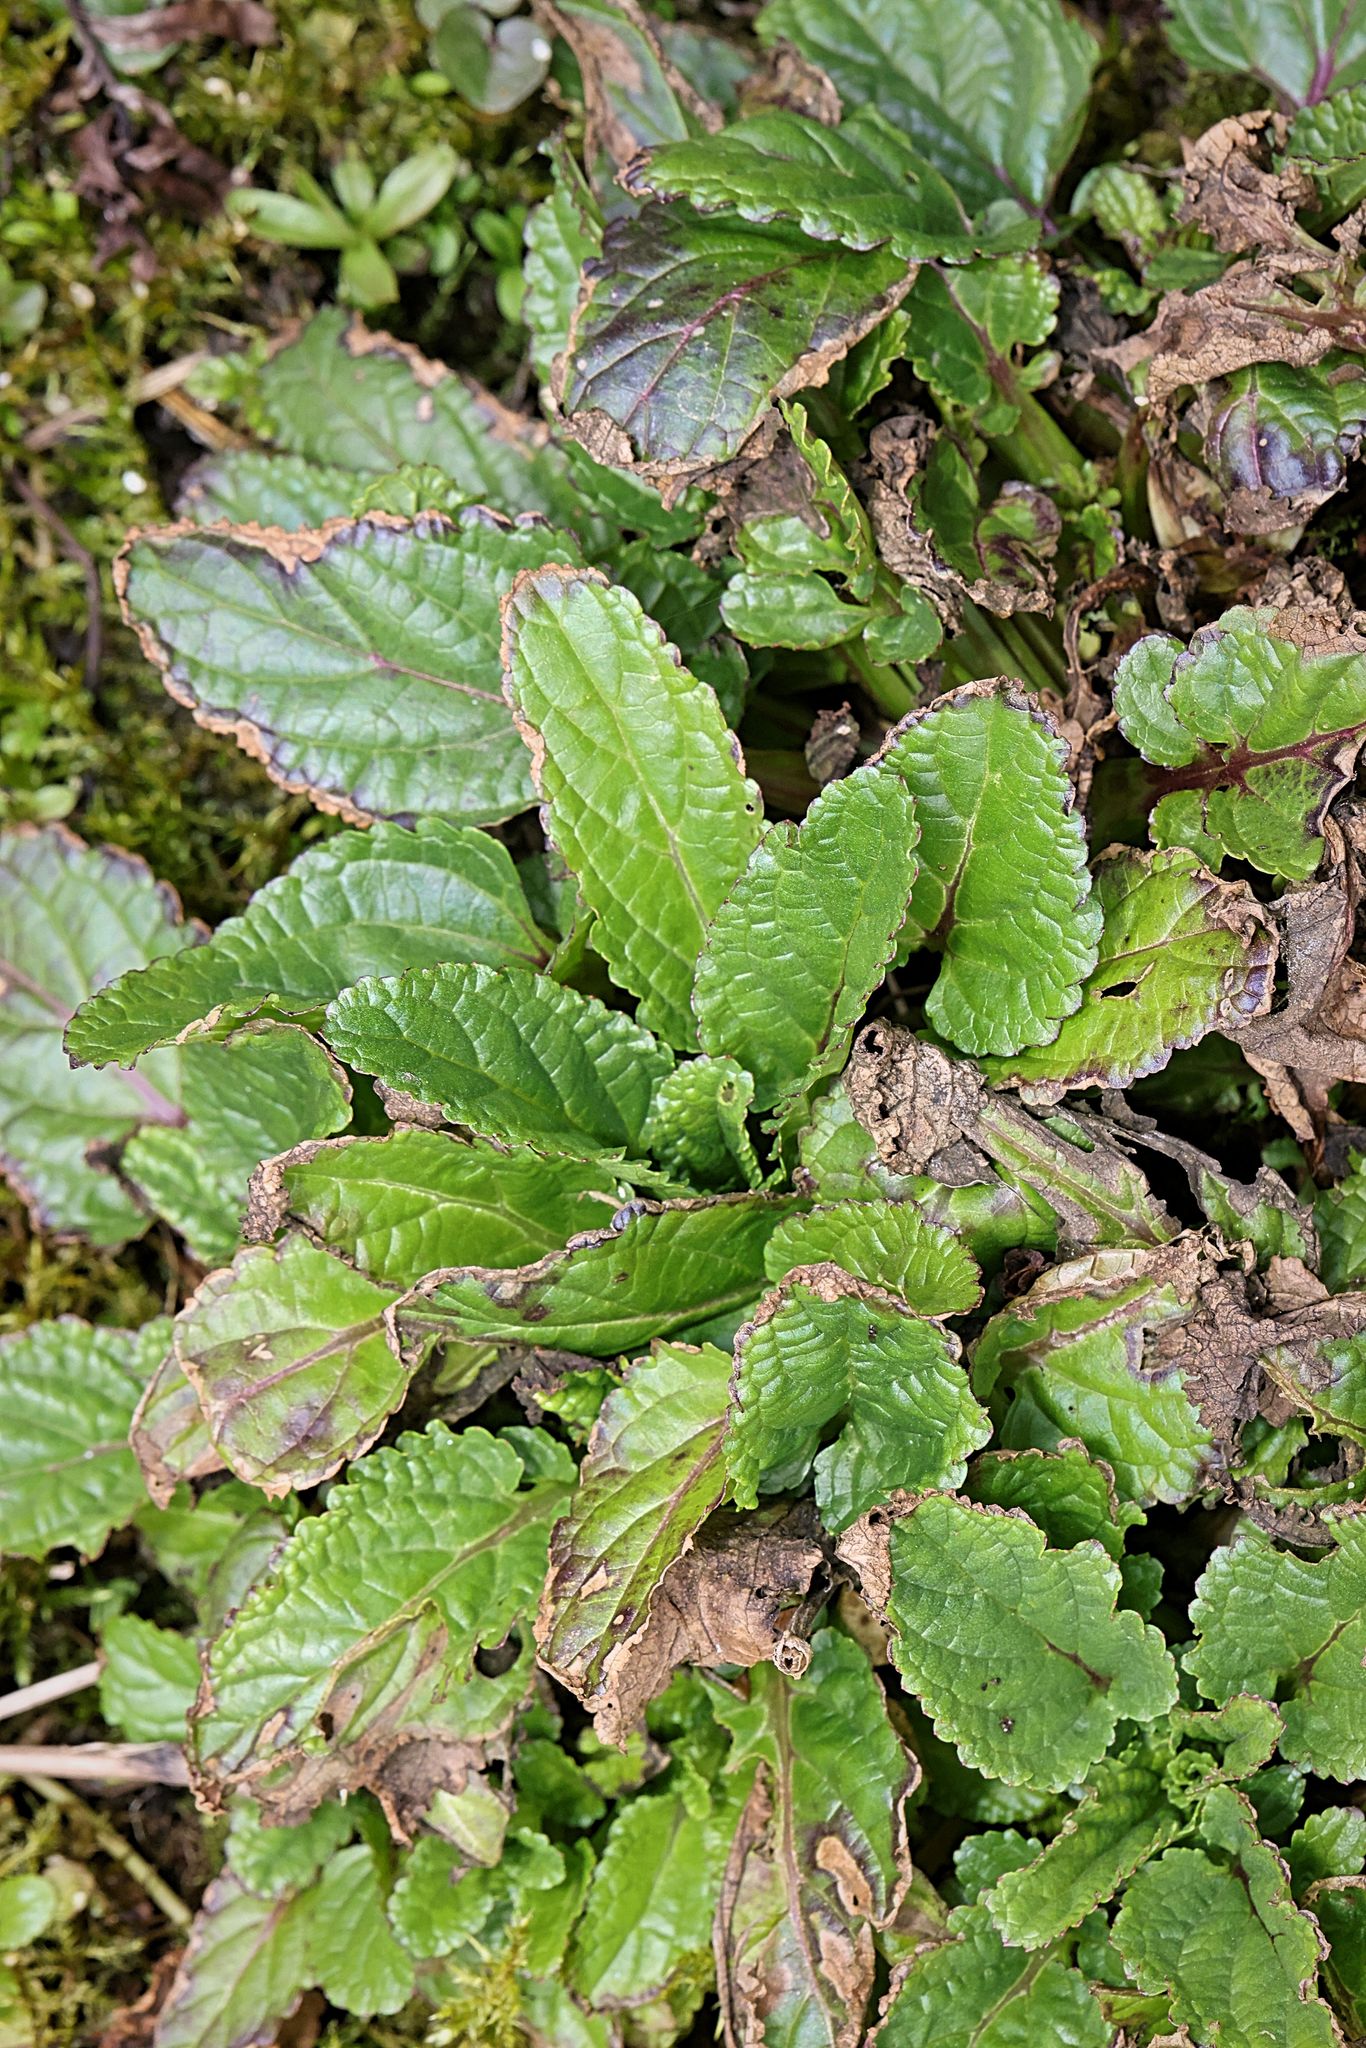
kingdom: Plantae
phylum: Tracheophyta
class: Magnoliopsida
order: Lamiales
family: Scrophulariaceae
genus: Scrophularia
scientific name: Scrophularia auriculata
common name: Water betony
